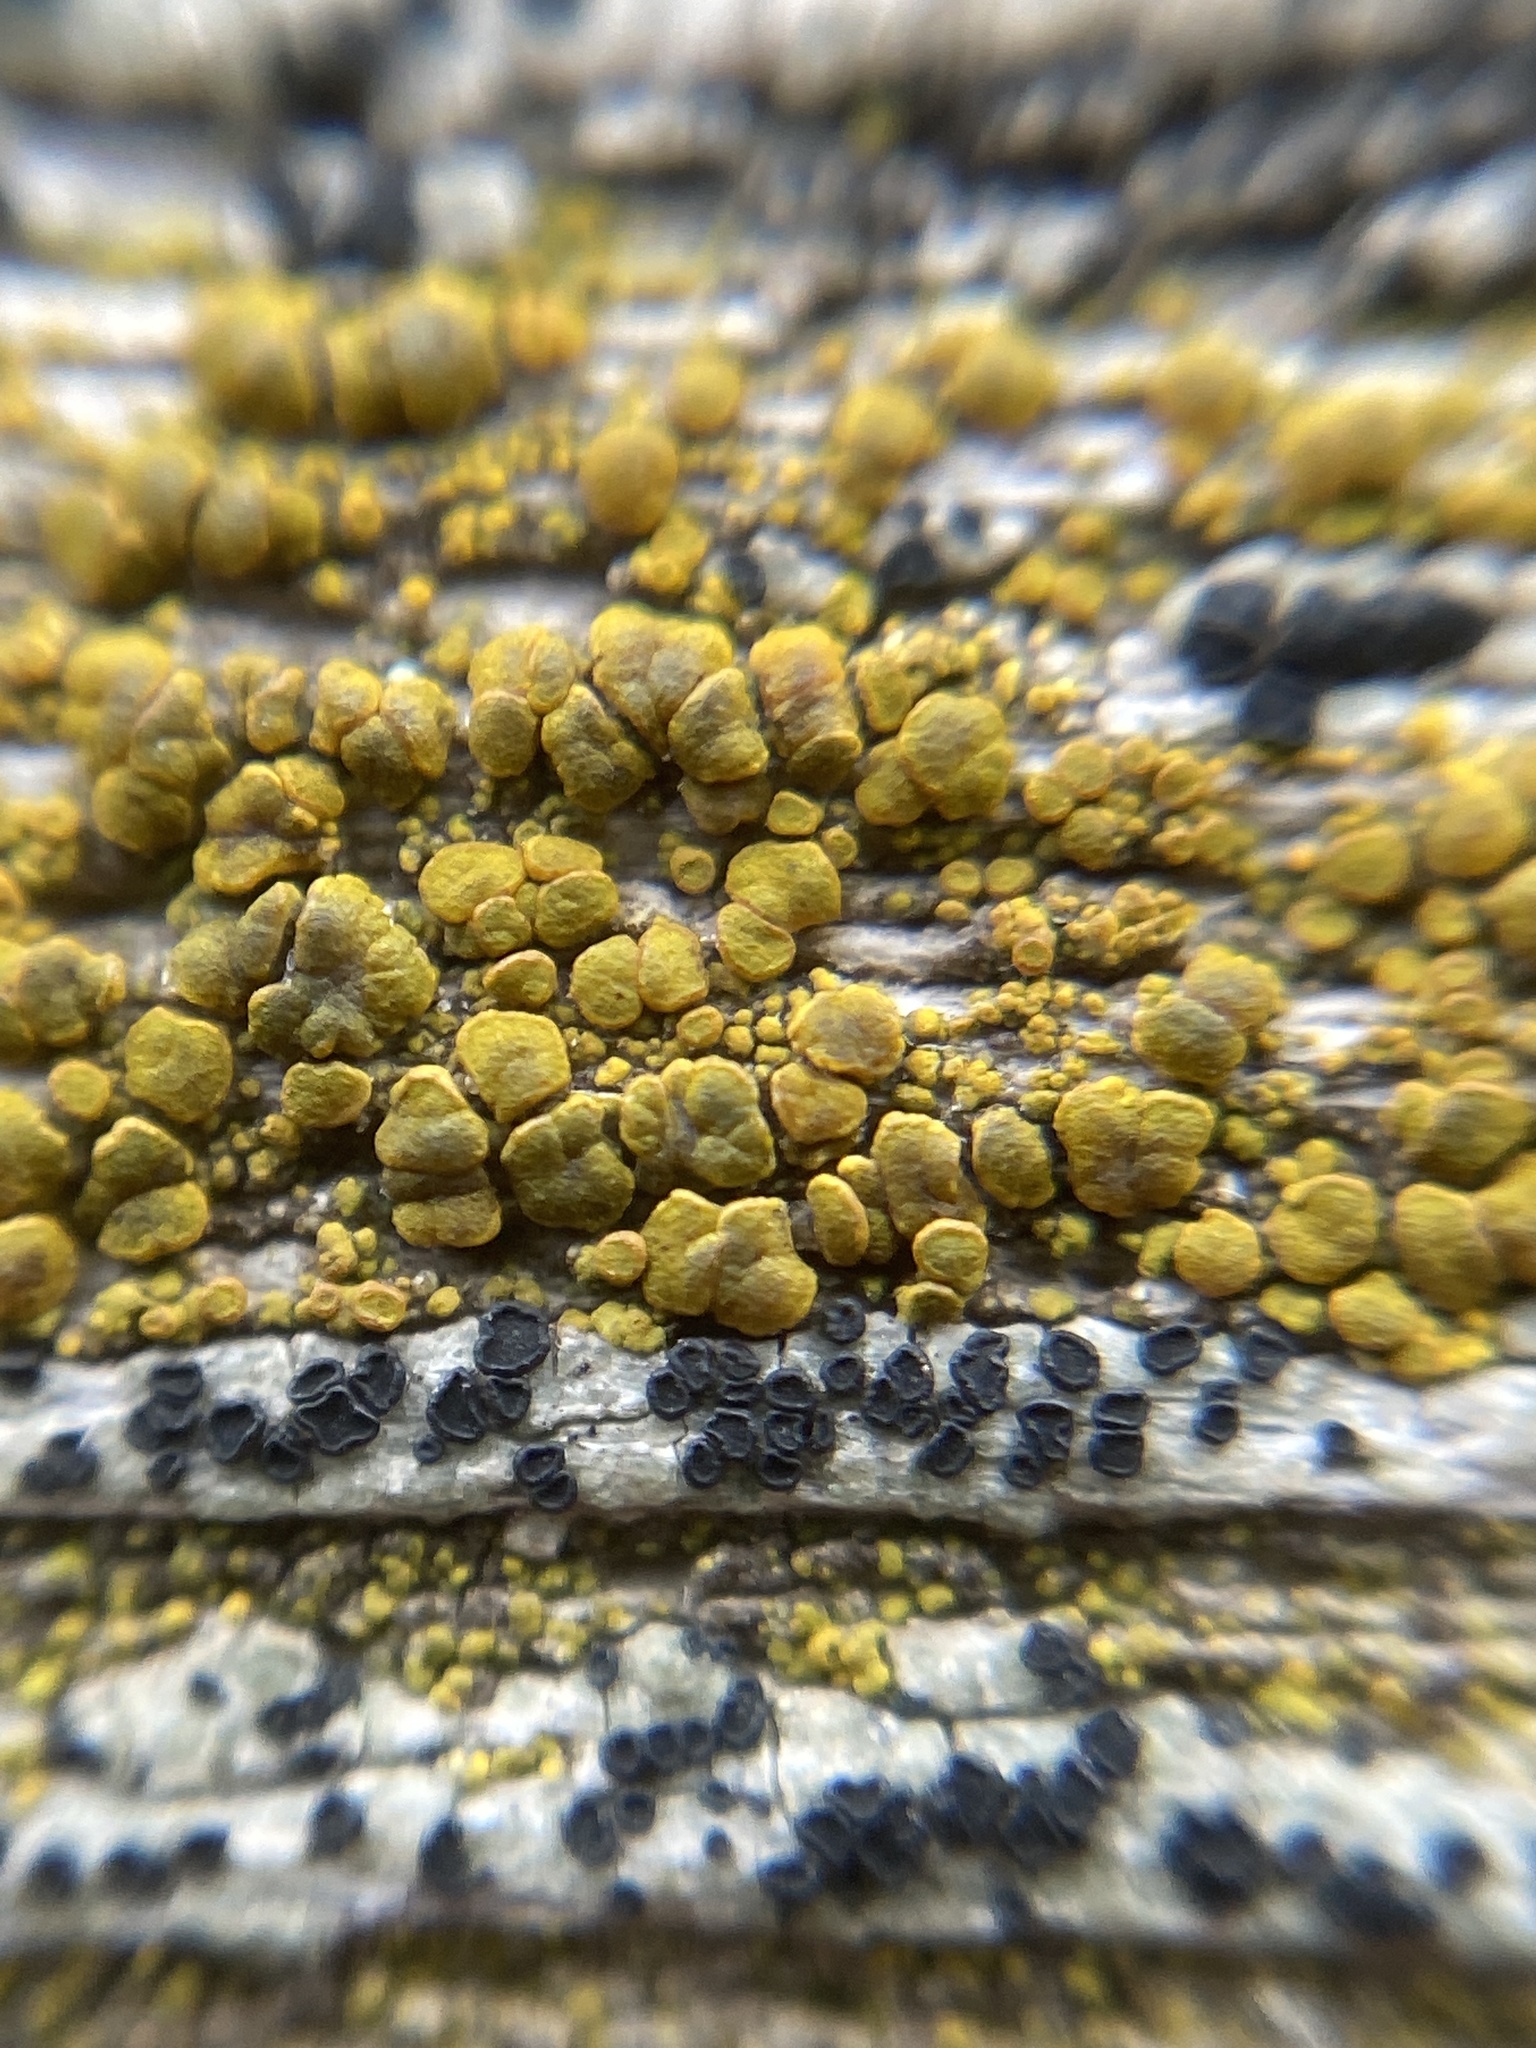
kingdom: Fungi
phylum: Ascomycota
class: Candelariomycetes
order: Candelariales
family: Candelariaceae
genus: Candelariella
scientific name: Candelariella vitellina
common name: Common goldspeck
